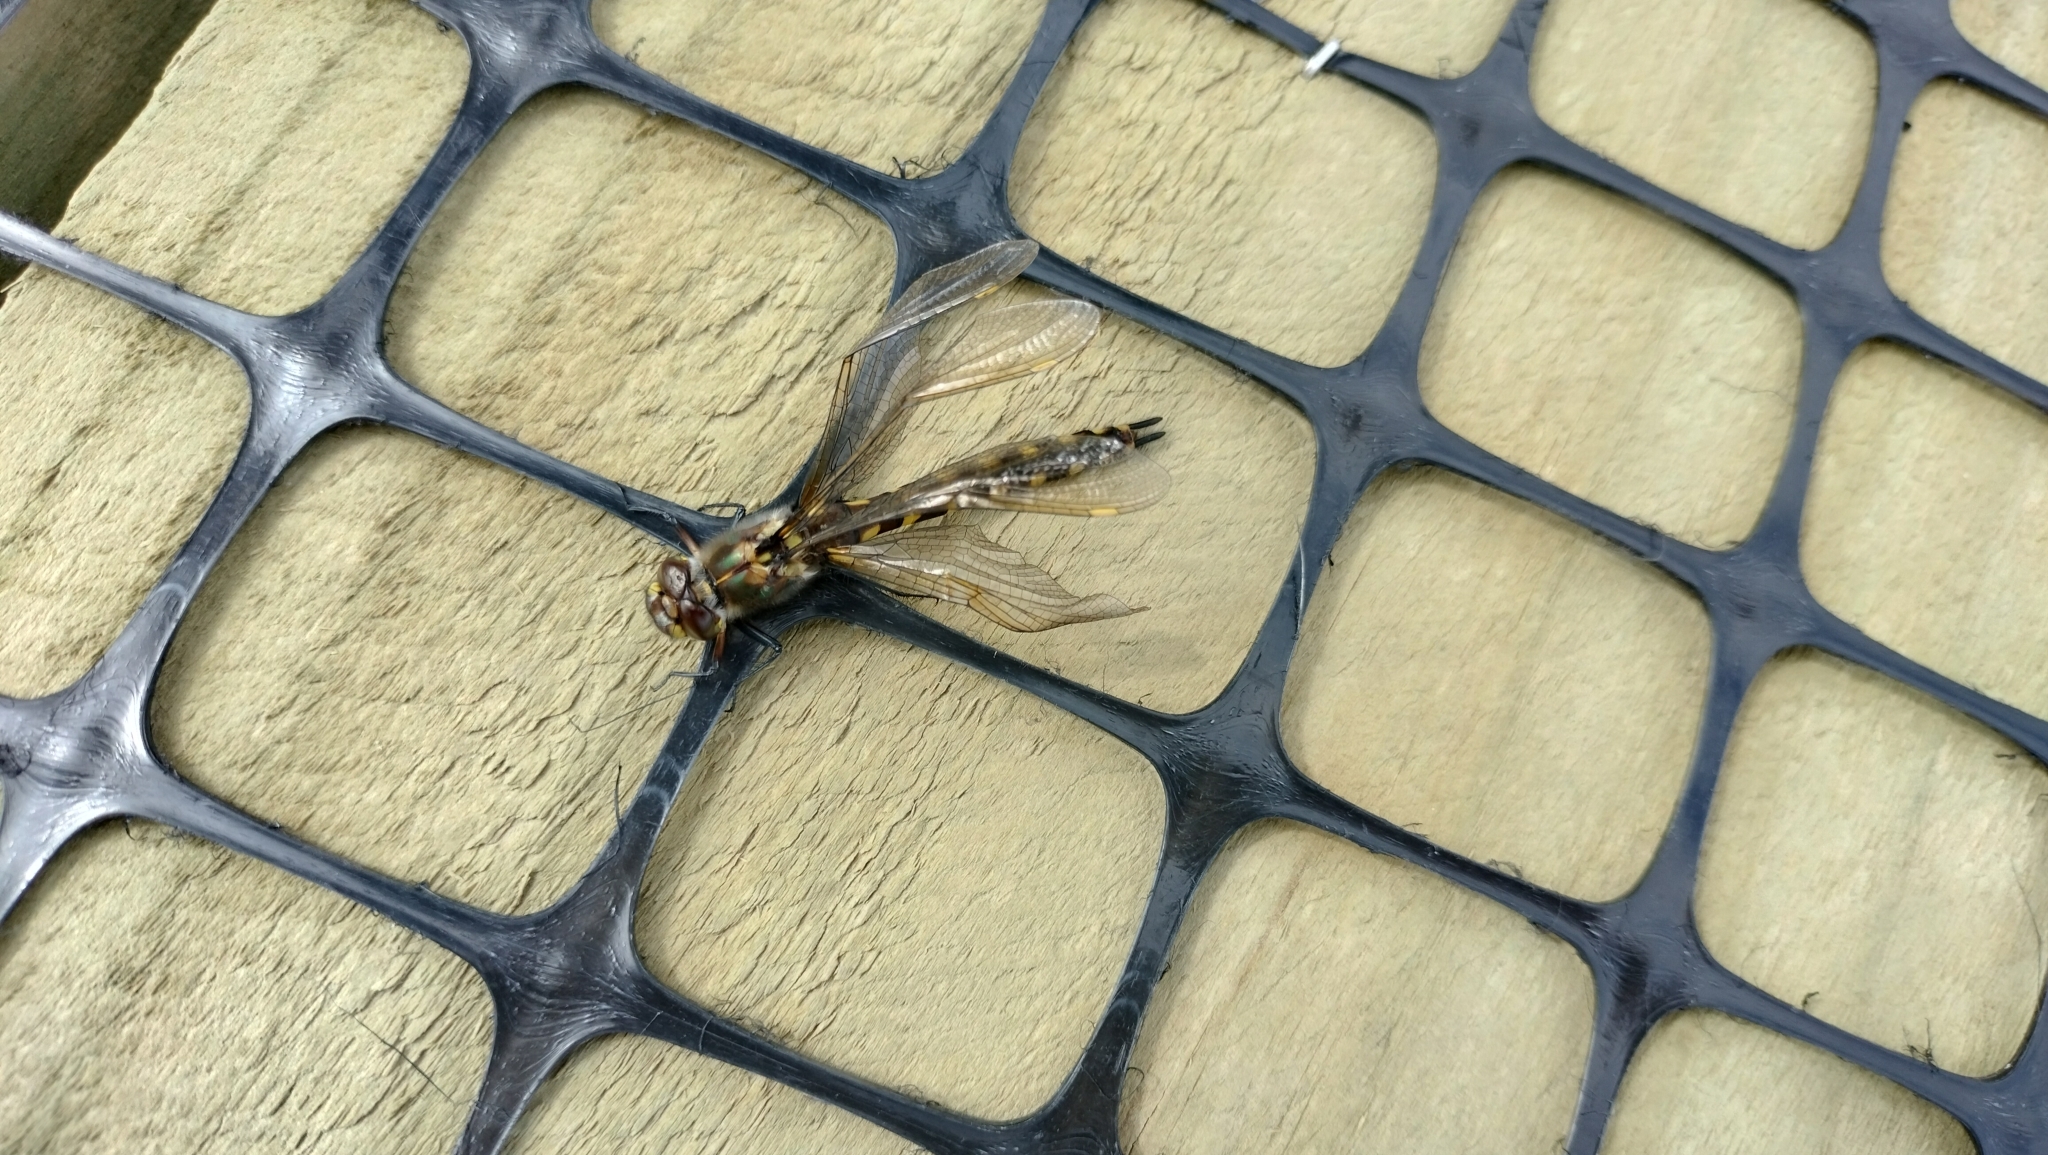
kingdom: Animalia
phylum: Arthropoda
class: Insecta
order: Odonata
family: Corduliidae
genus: Procordulia
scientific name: Procordulia grayi
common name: Yellow spotted dragonfly
